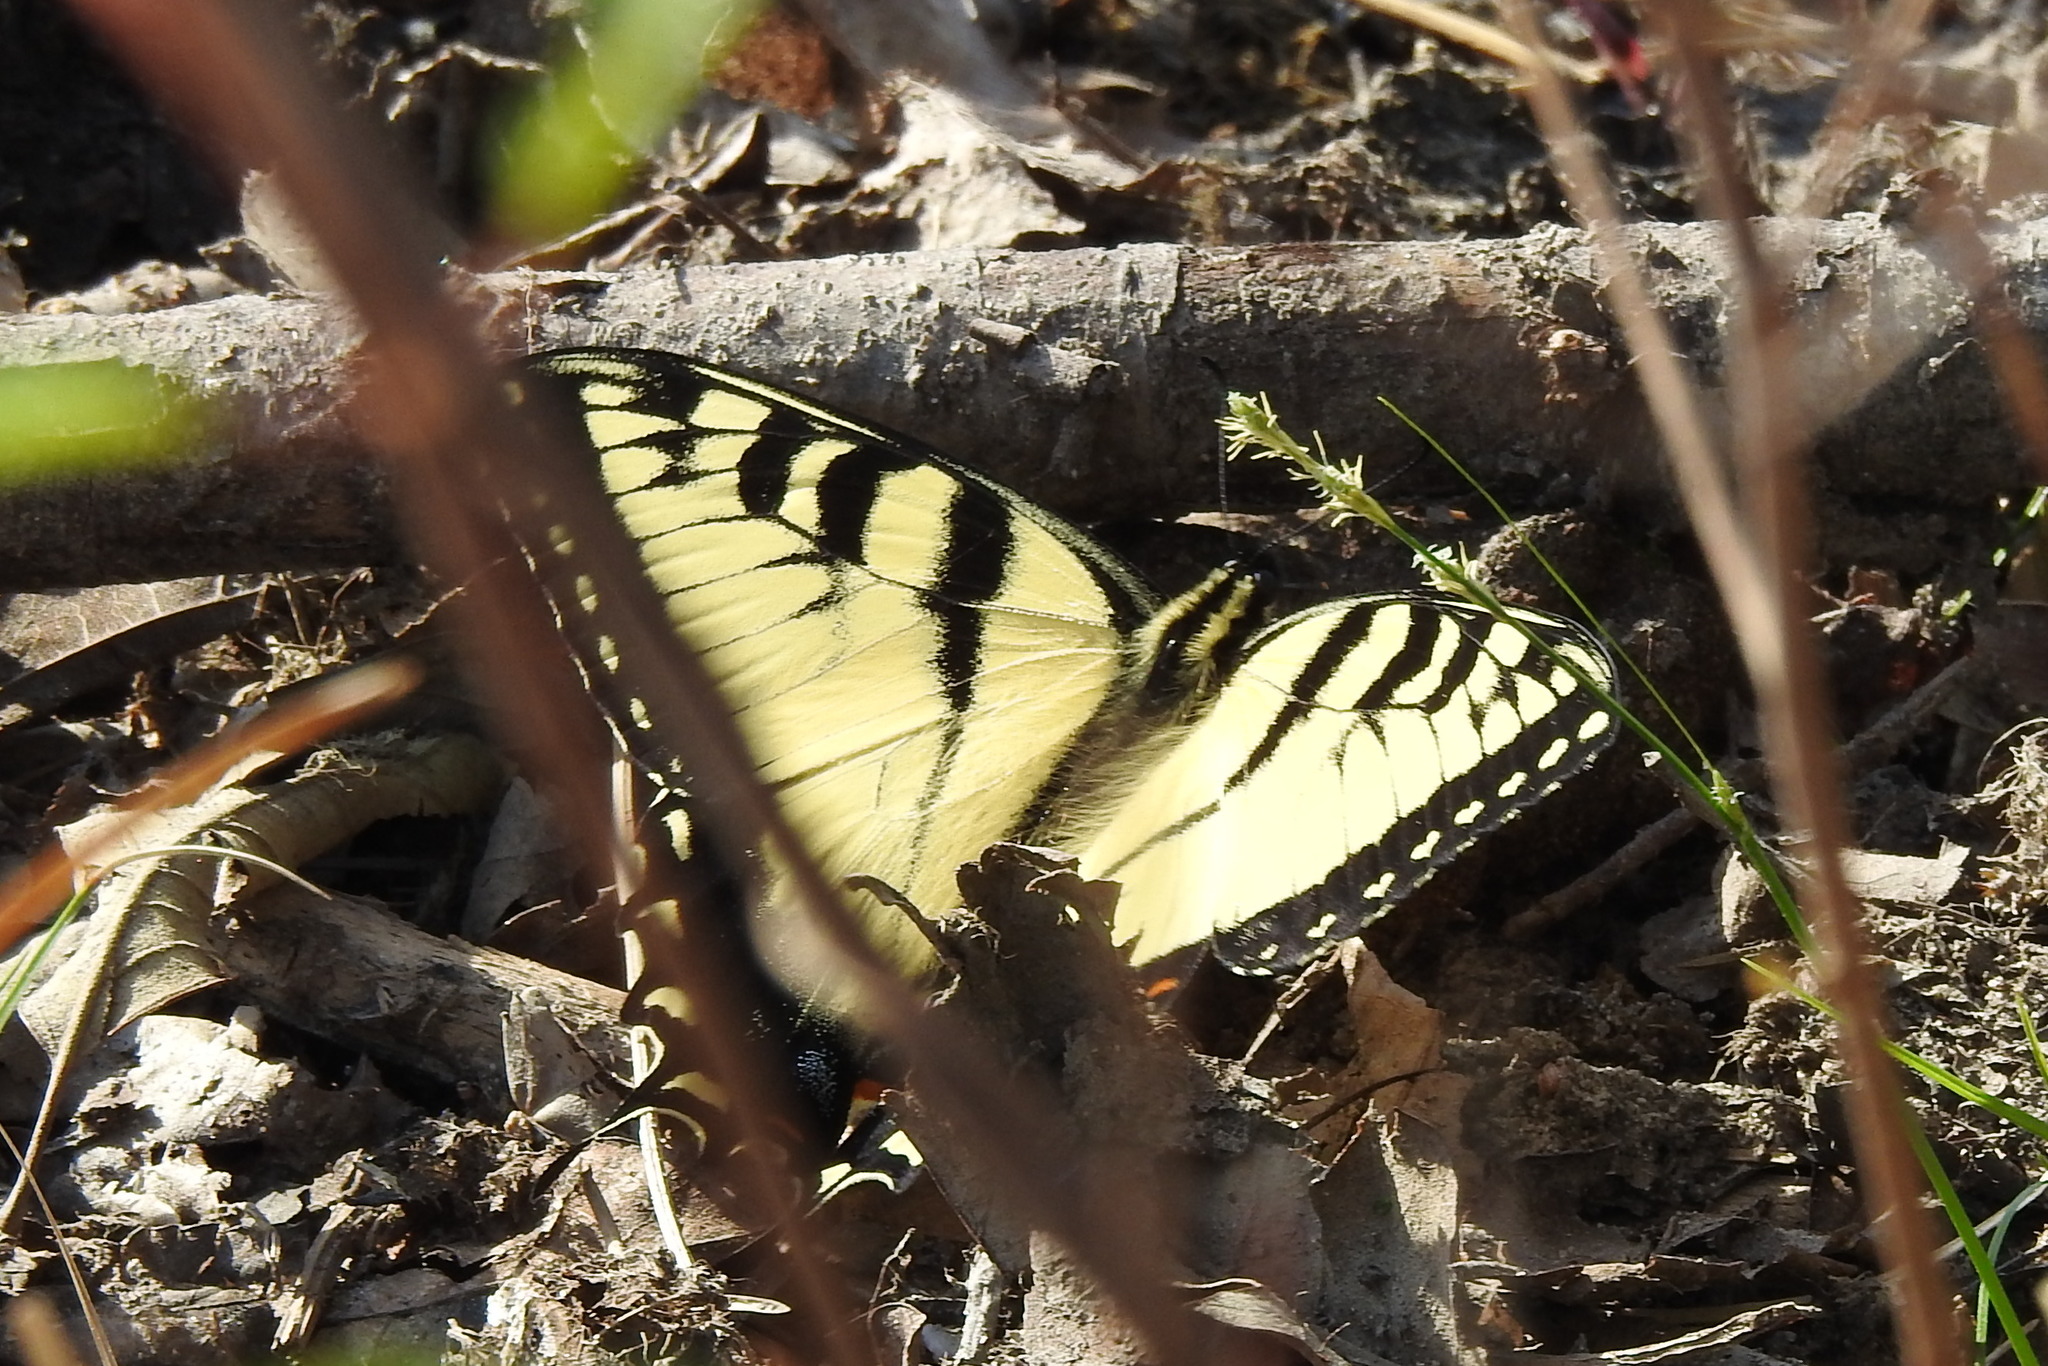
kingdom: Animalia
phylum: Arthropoda
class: Insecta
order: Lepidoptera
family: Papilionidae
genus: Papilio
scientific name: Papilio glaucus
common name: Tiger swallowtail
